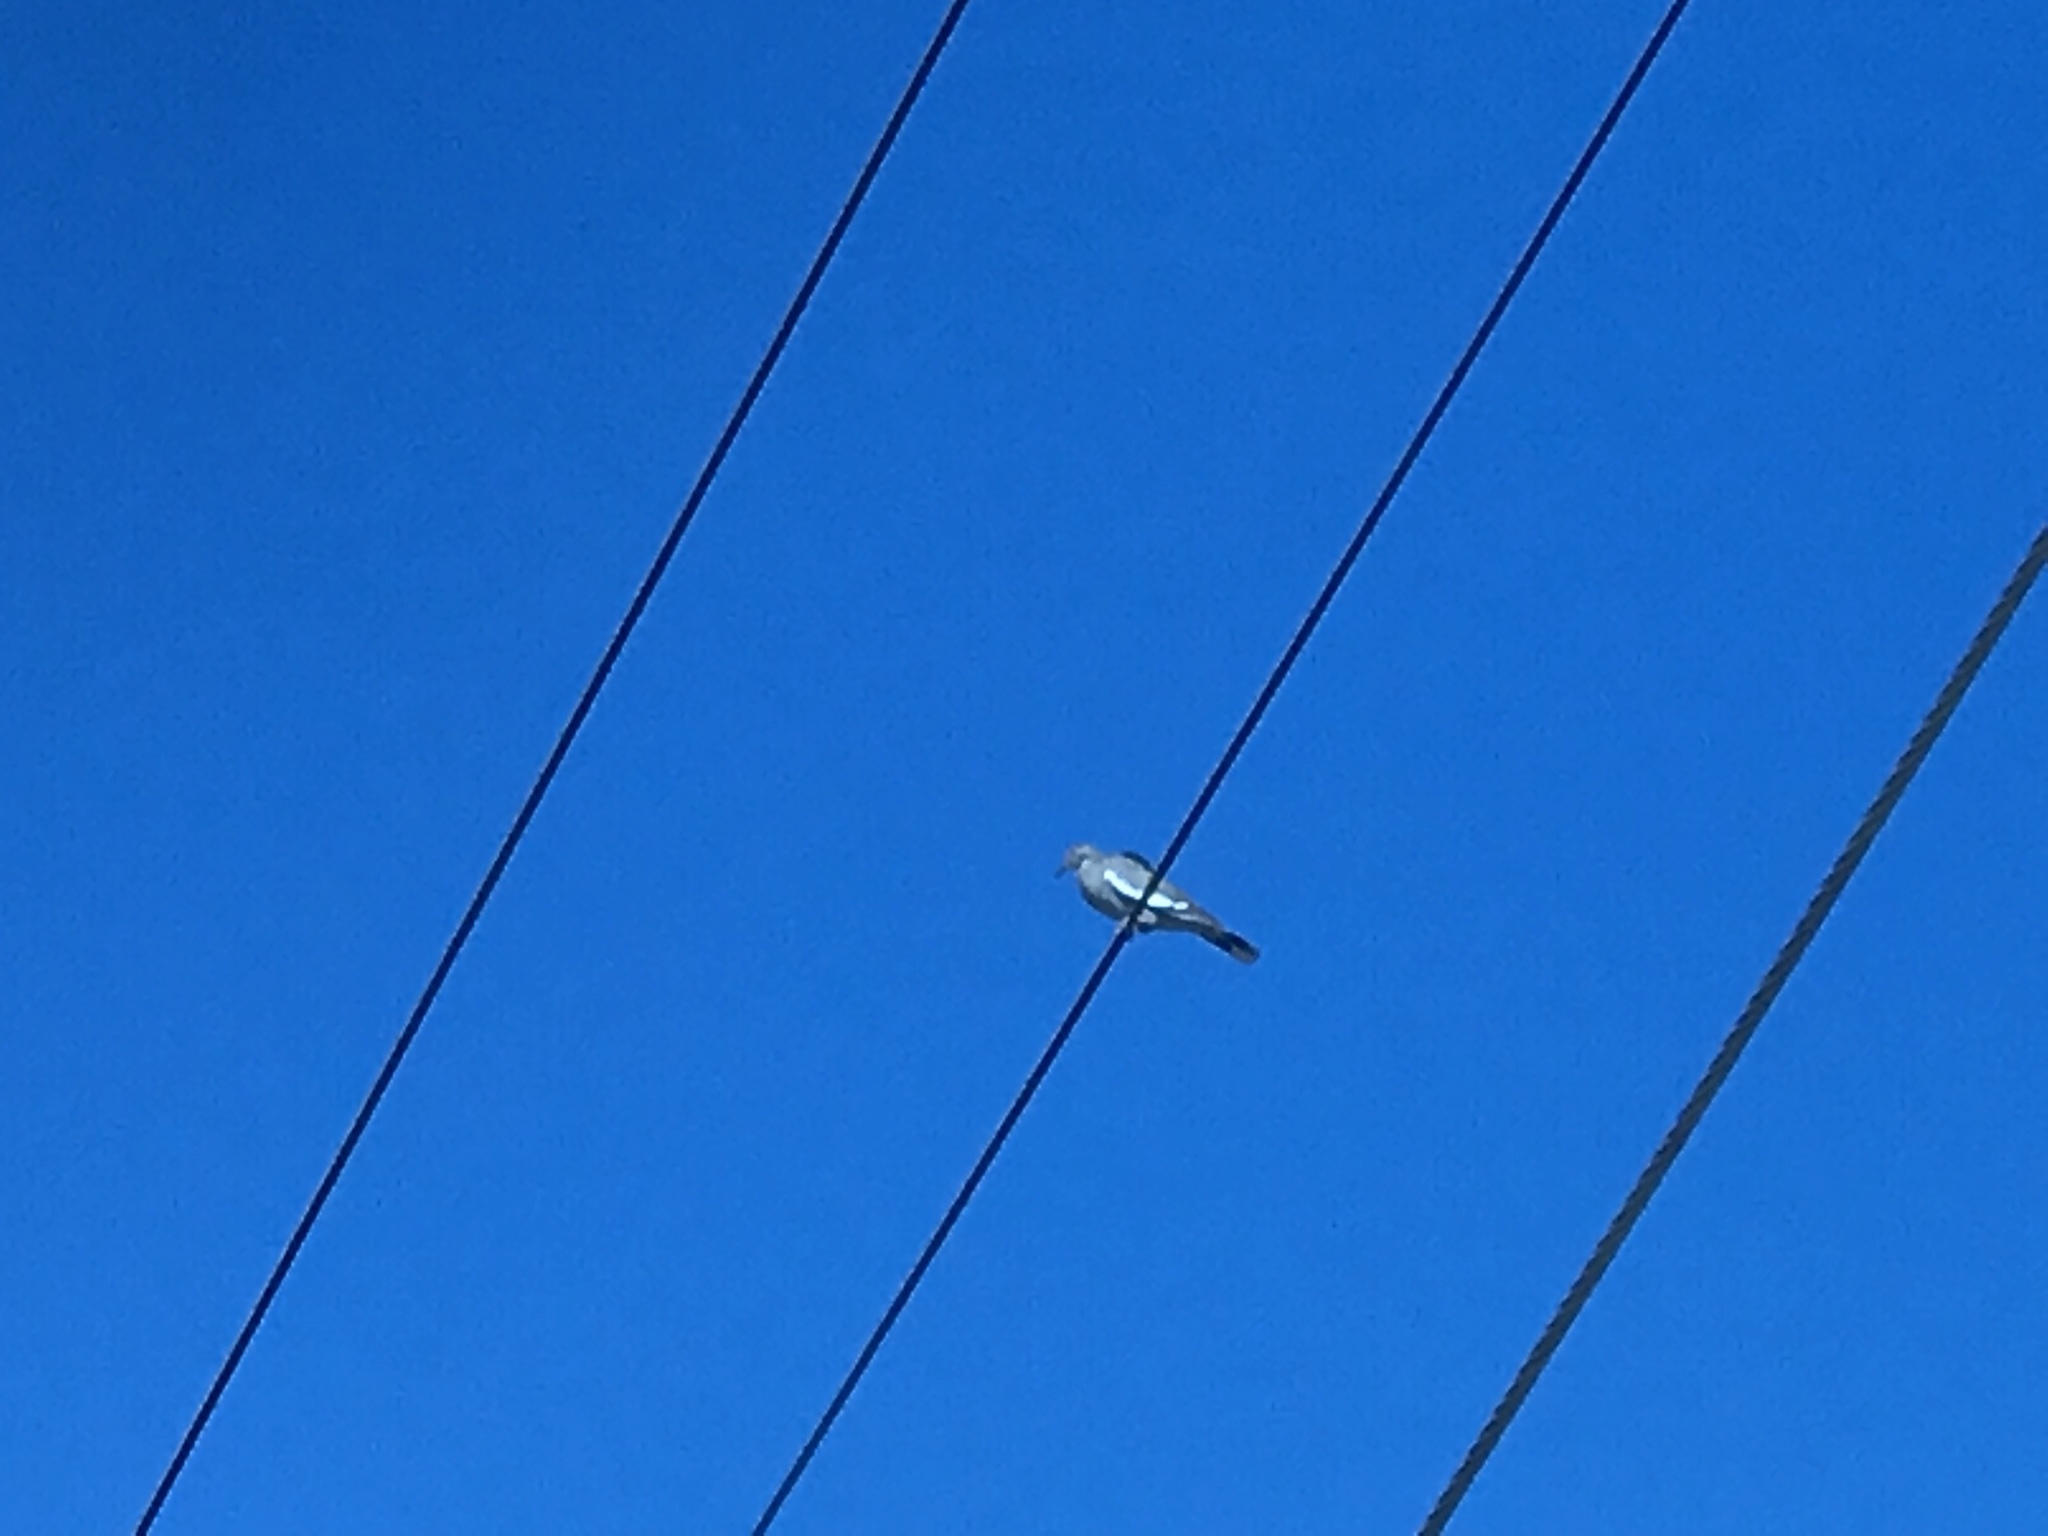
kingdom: Animalia
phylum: Chordata
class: Aves
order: Columbiformes
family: Columbidae
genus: Zenaida
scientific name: Zenaida asiatica
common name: White-winged dove
